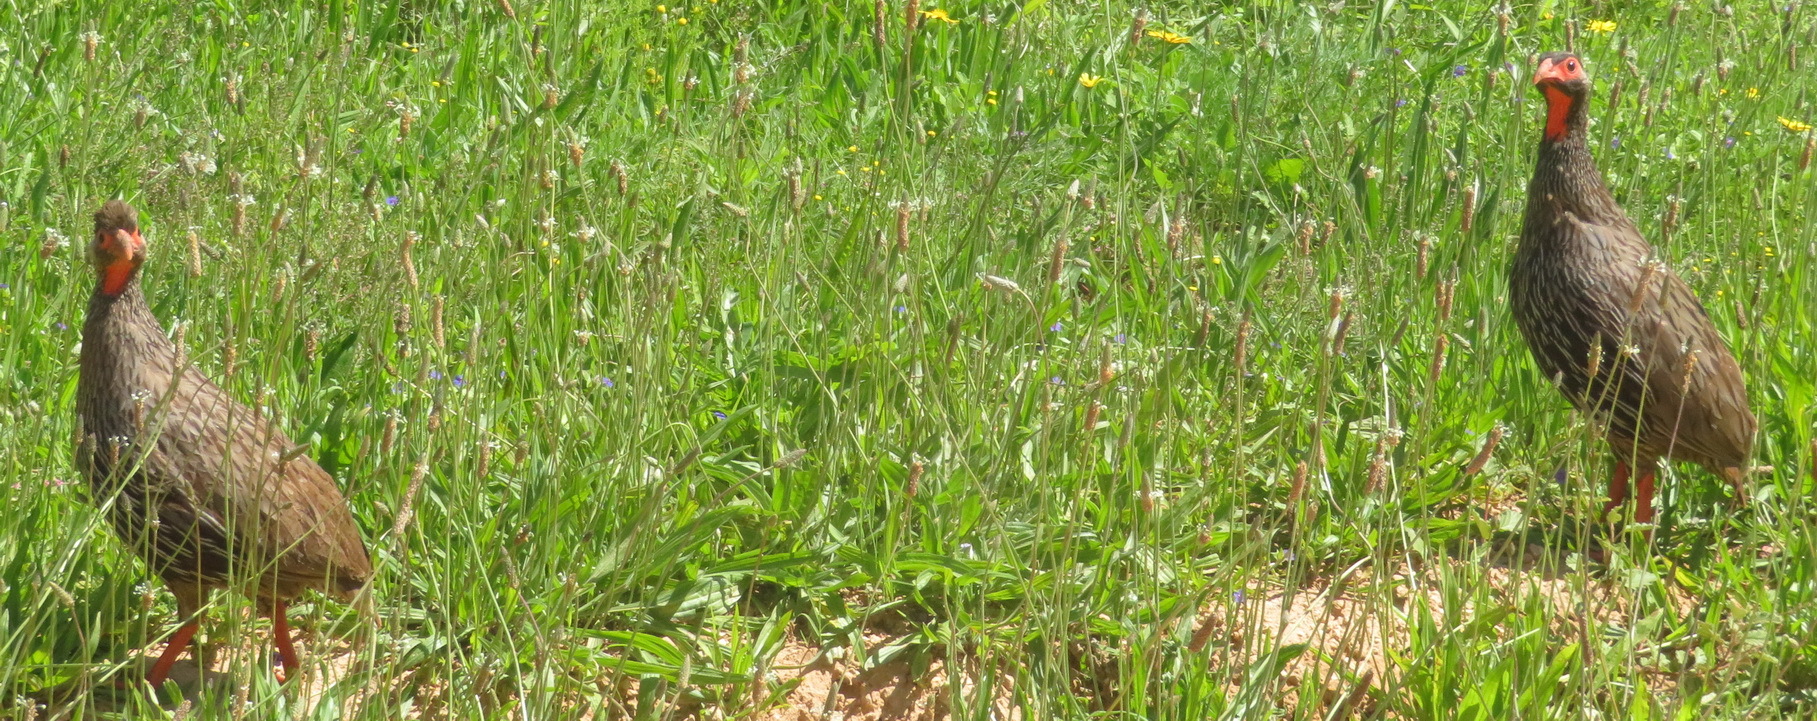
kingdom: Animalia
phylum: Chordata
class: Aves
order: Galliformes
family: Phasianidae
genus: Pternistis
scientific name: Pternistis afer
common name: Red-necked spurfowl
